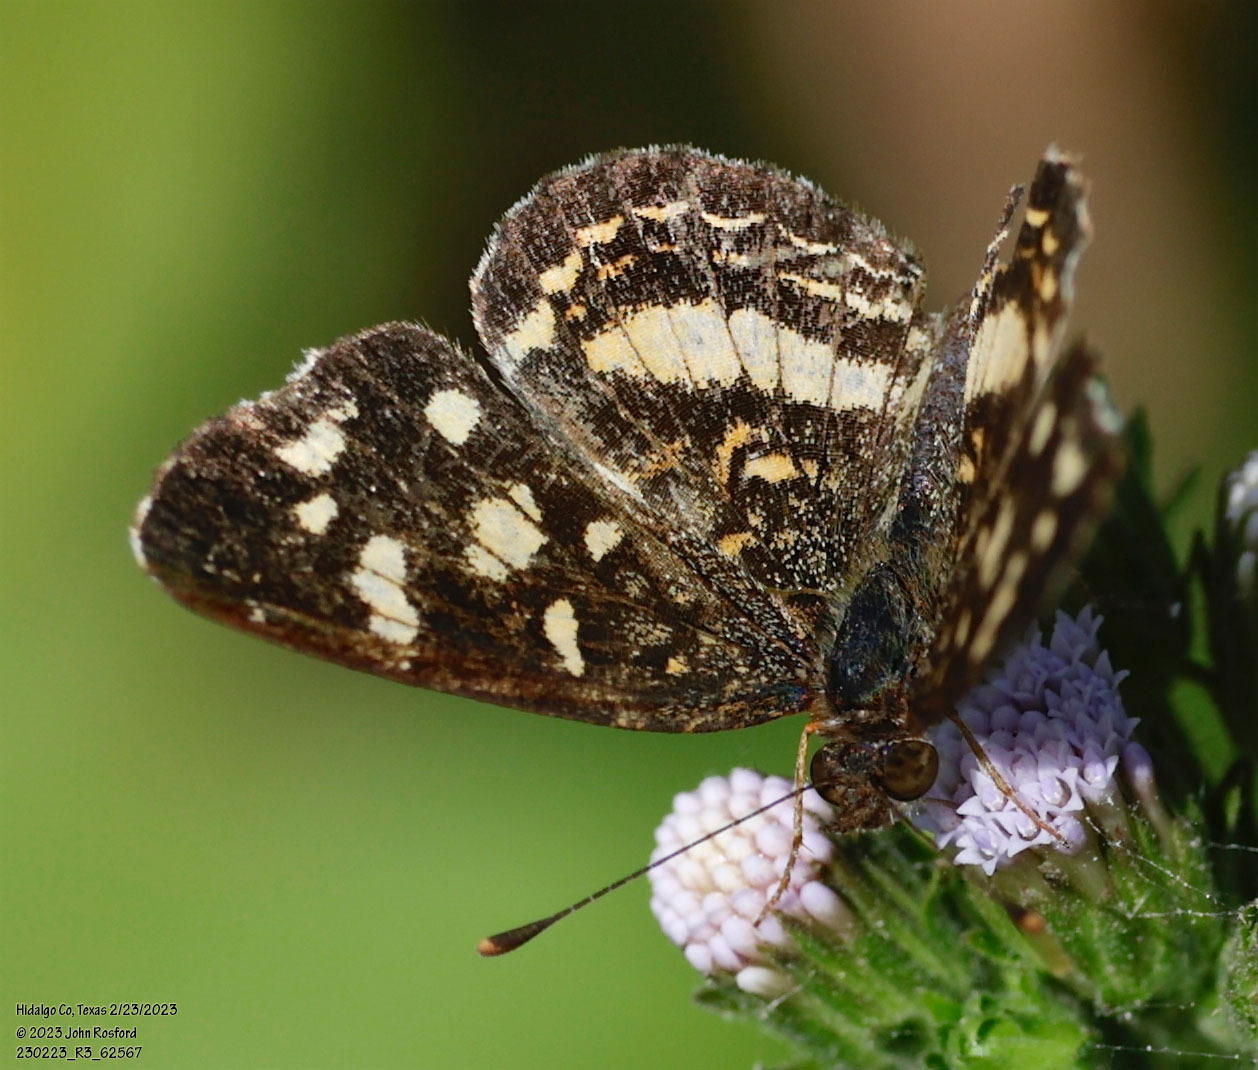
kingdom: Animalia
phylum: Arthropoda
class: Insecta
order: Lepidoptera
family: Nymphalidae
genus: Anthanassa
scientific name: Anthanassa tulcis
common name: Pale-banded crescent
